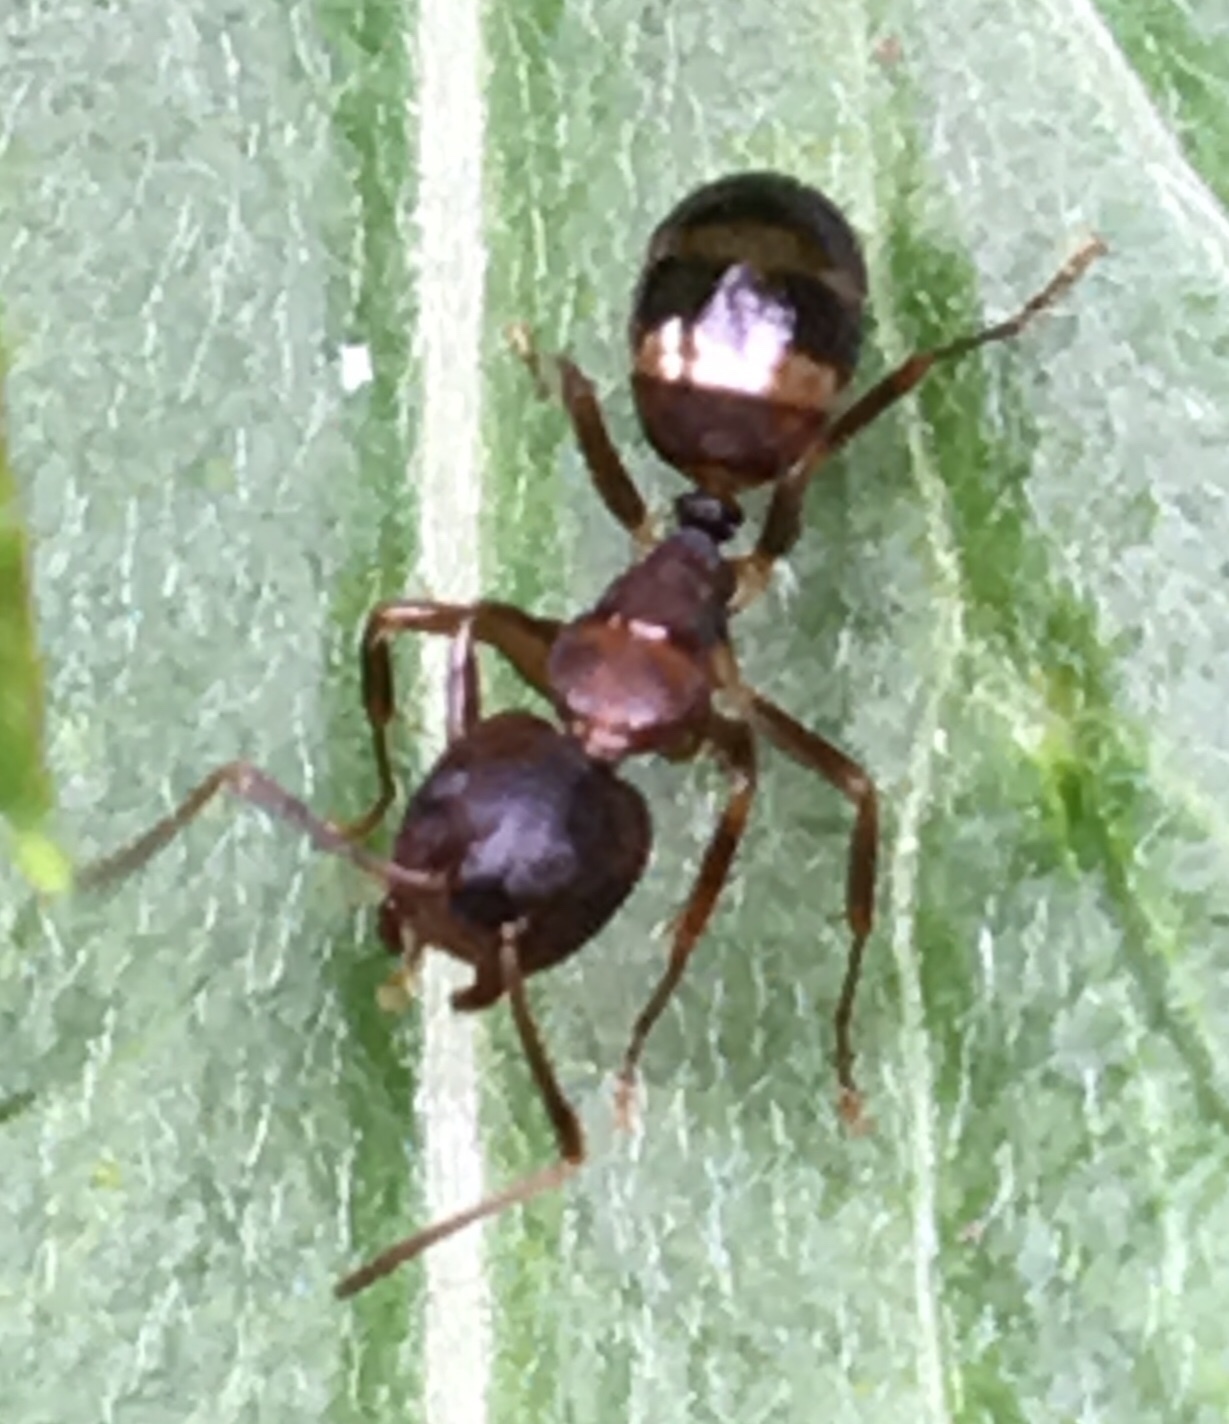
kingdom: Animalia
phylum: Arthropoda
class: Insecta
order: Hymenoptera
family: Formicidae
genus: Camponotus
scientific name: Camponotus subbarbatus
